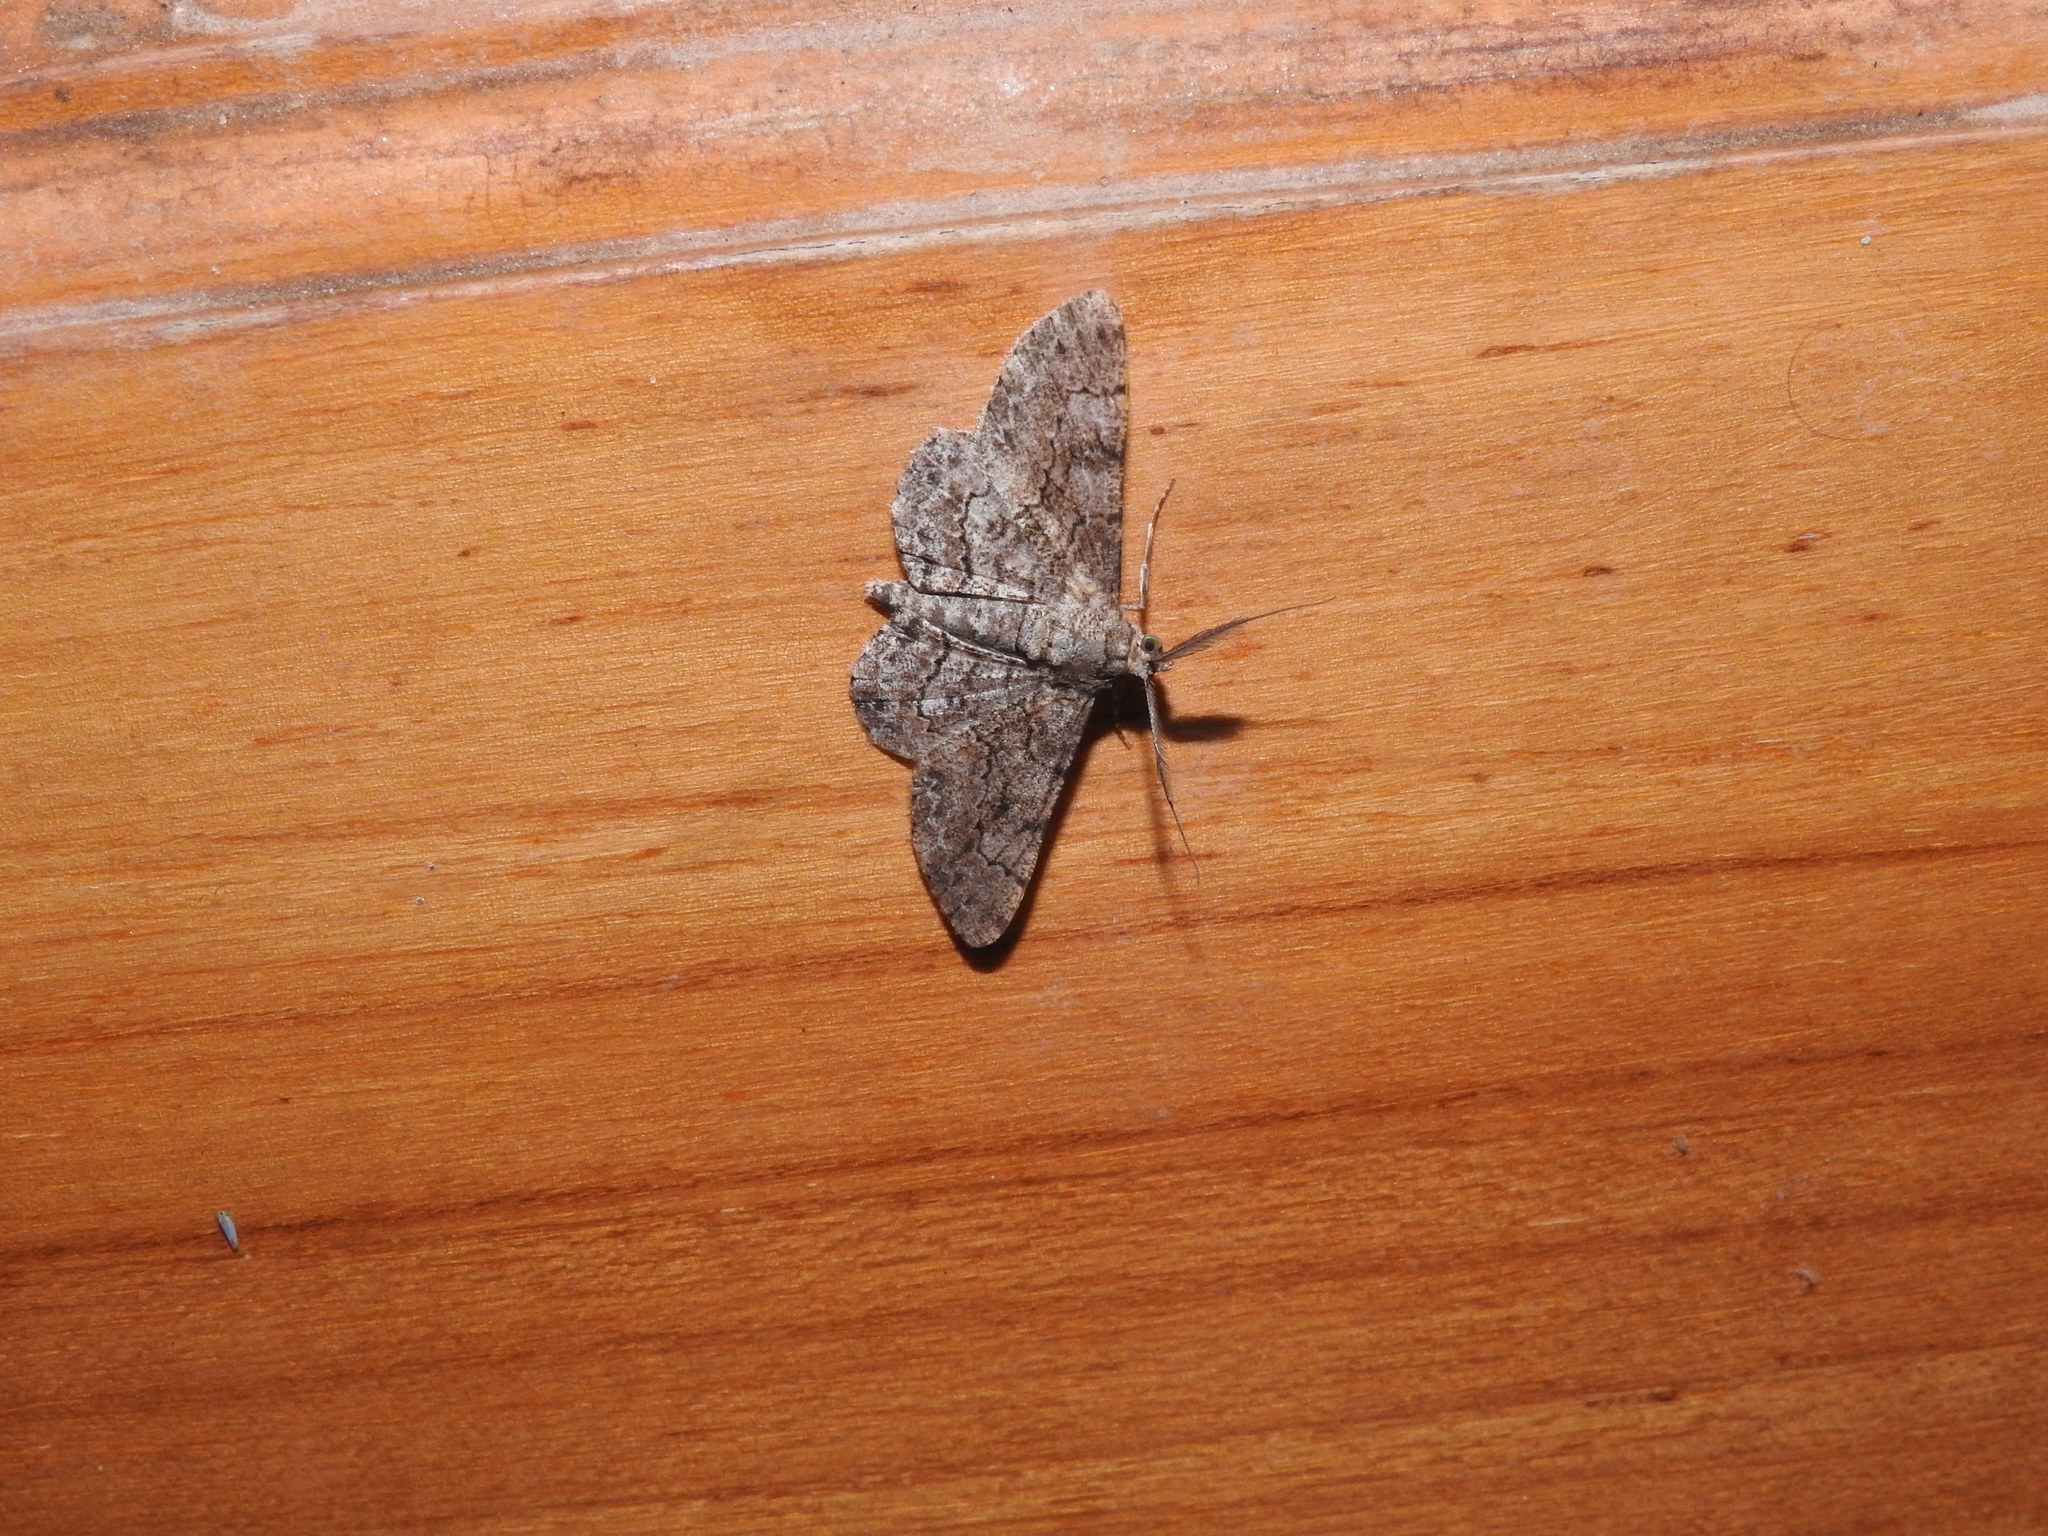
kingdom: Animalia
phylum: Arthropoda
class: Insecta
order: Lepidoptera
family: Geometridae
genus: Cleora
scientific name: Cleora repulsaria
